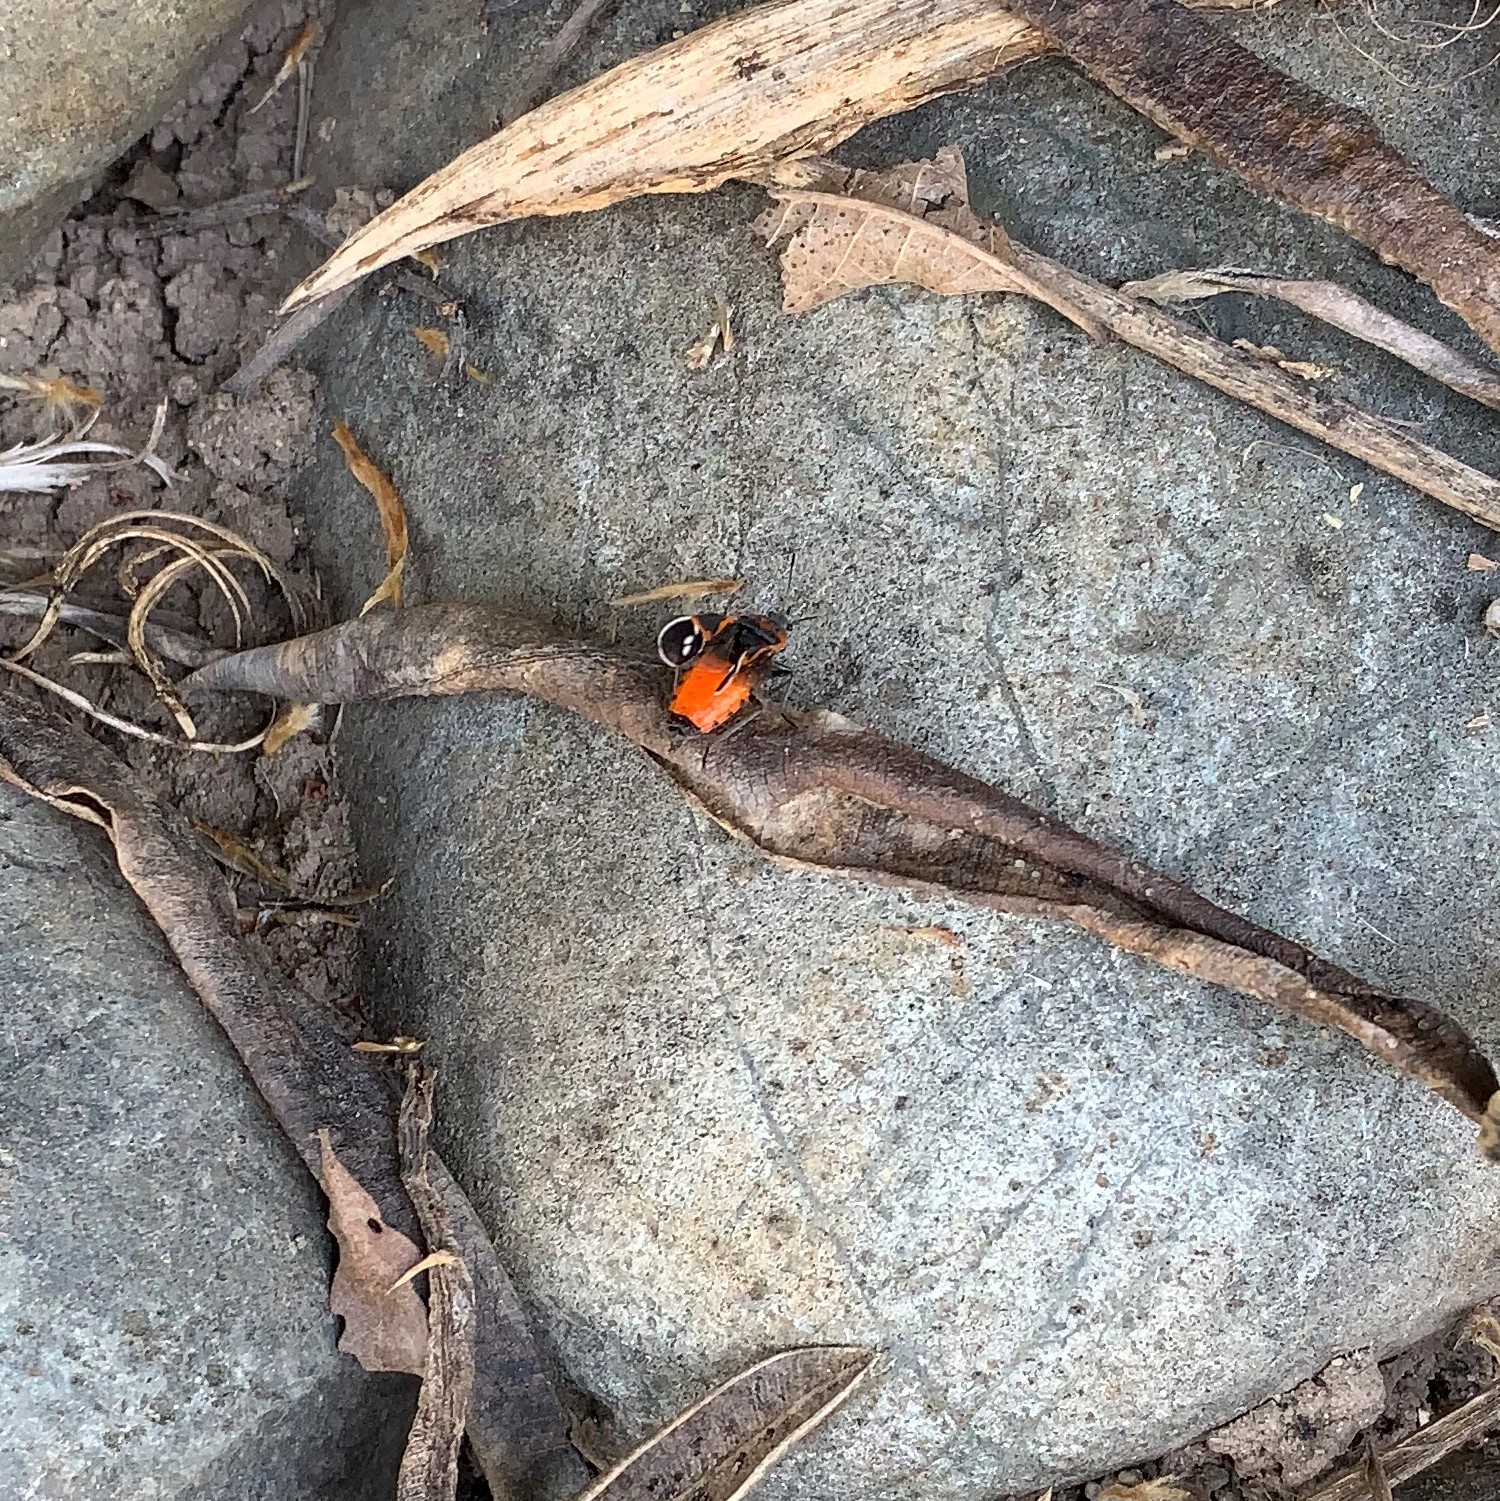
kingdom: Animalia
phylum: Arthropoda
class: Insecta
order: Hemiptera
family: Lygaeidae
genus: Lygaeus
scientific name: Lygaeus kalmii
